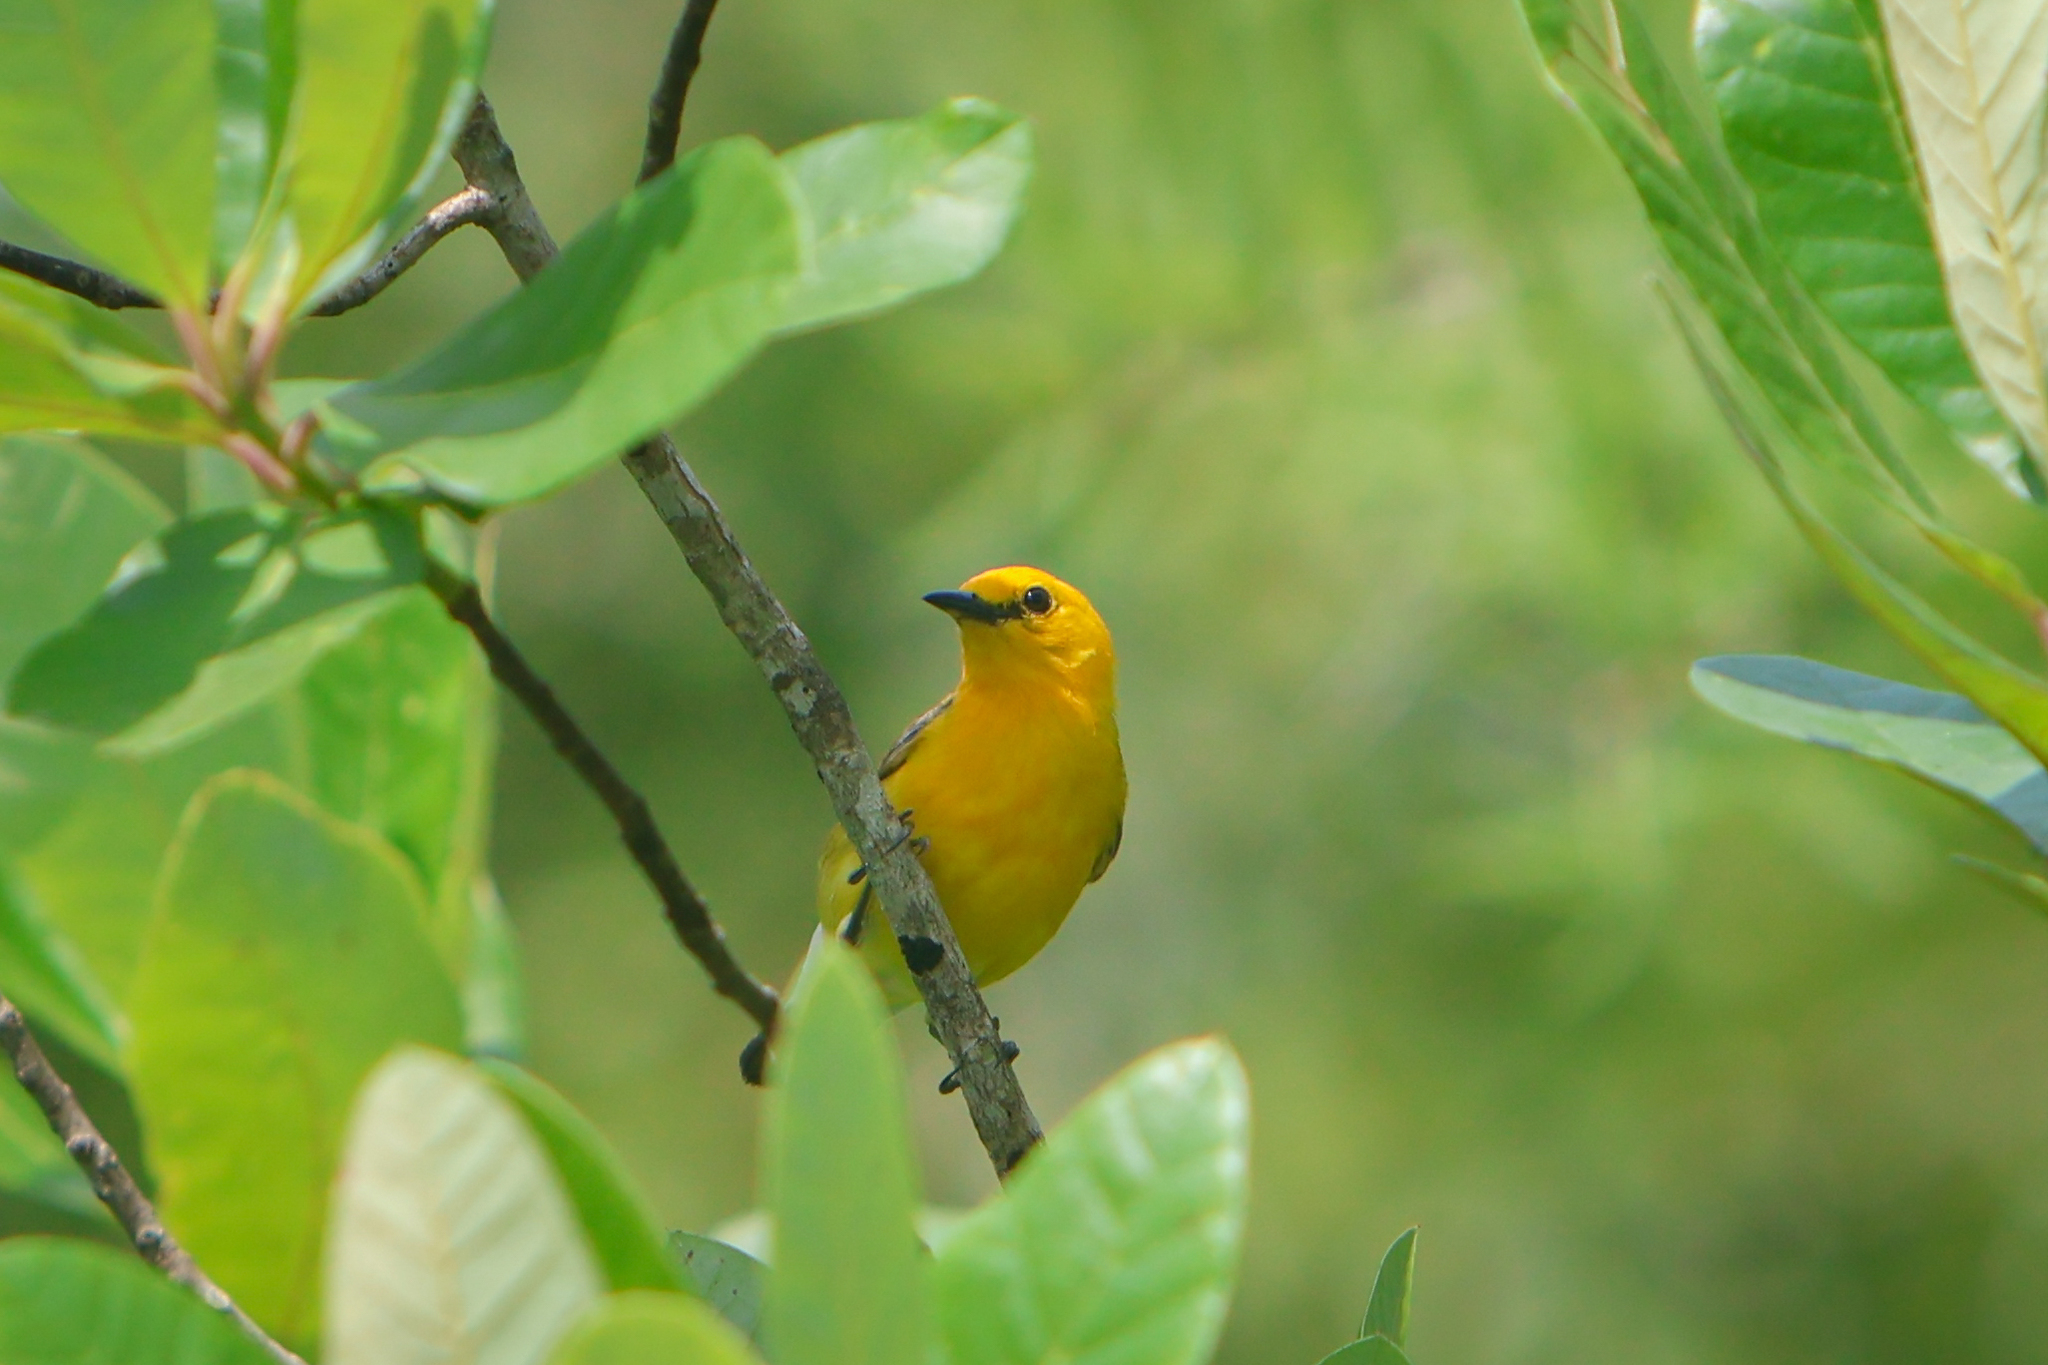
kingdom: Animalia
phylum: Chordata
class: Aves
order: Passeriformes
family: Parulidae
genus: Protonotaria
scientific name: Protonotaria citrea
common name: Prothonotary warbler
